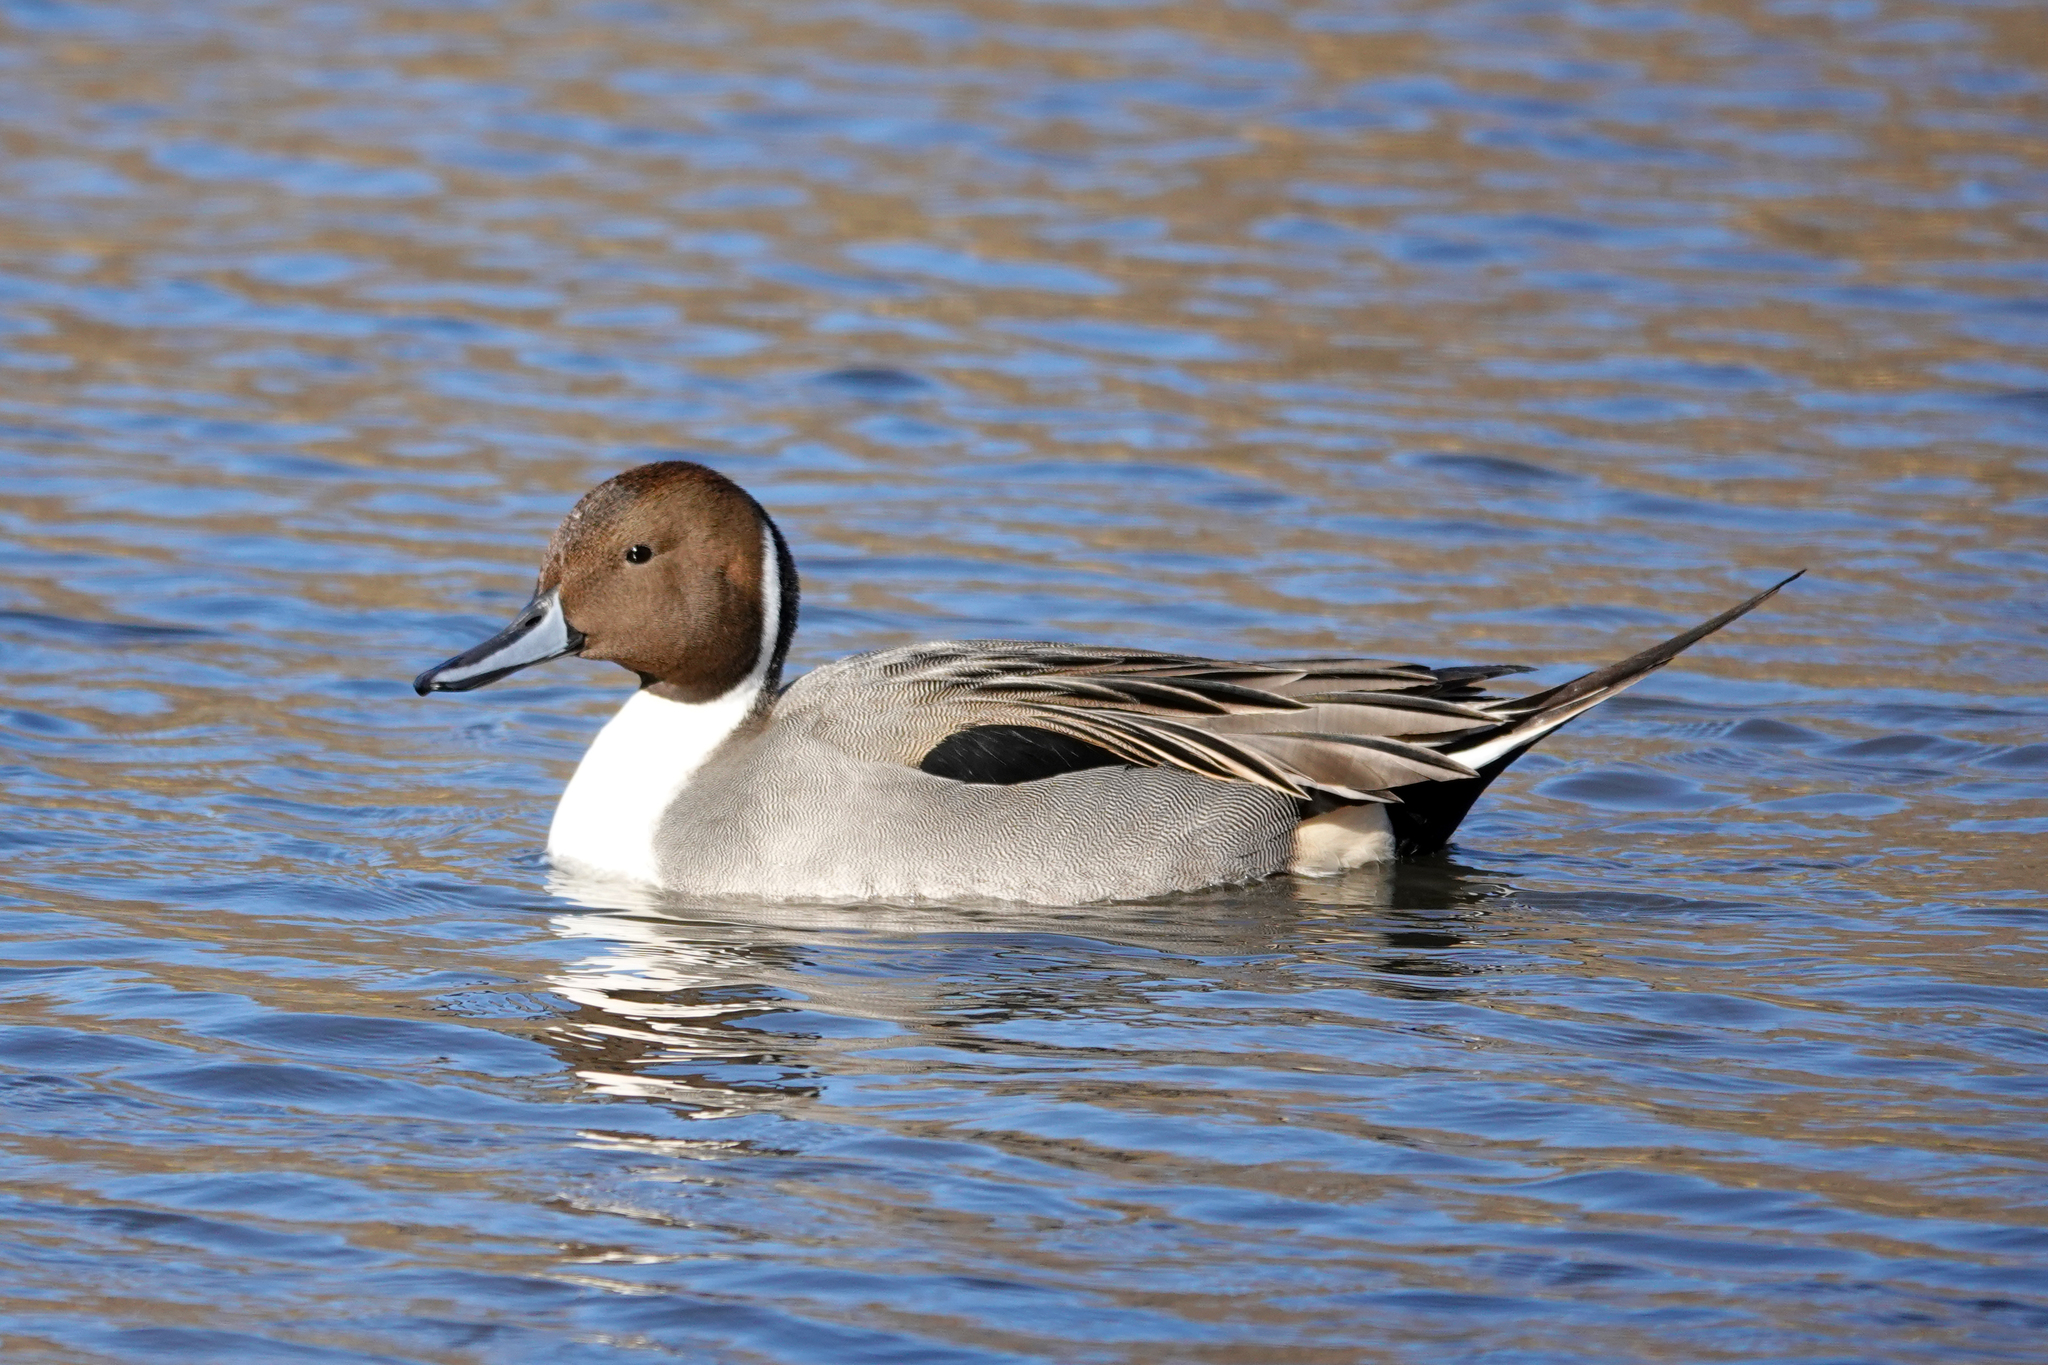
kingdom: Animalia
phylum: Chordata
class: Aves
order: Anseriformes
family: Anatidae
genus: Anas
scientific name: Anas acuta
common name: Northern pintail
